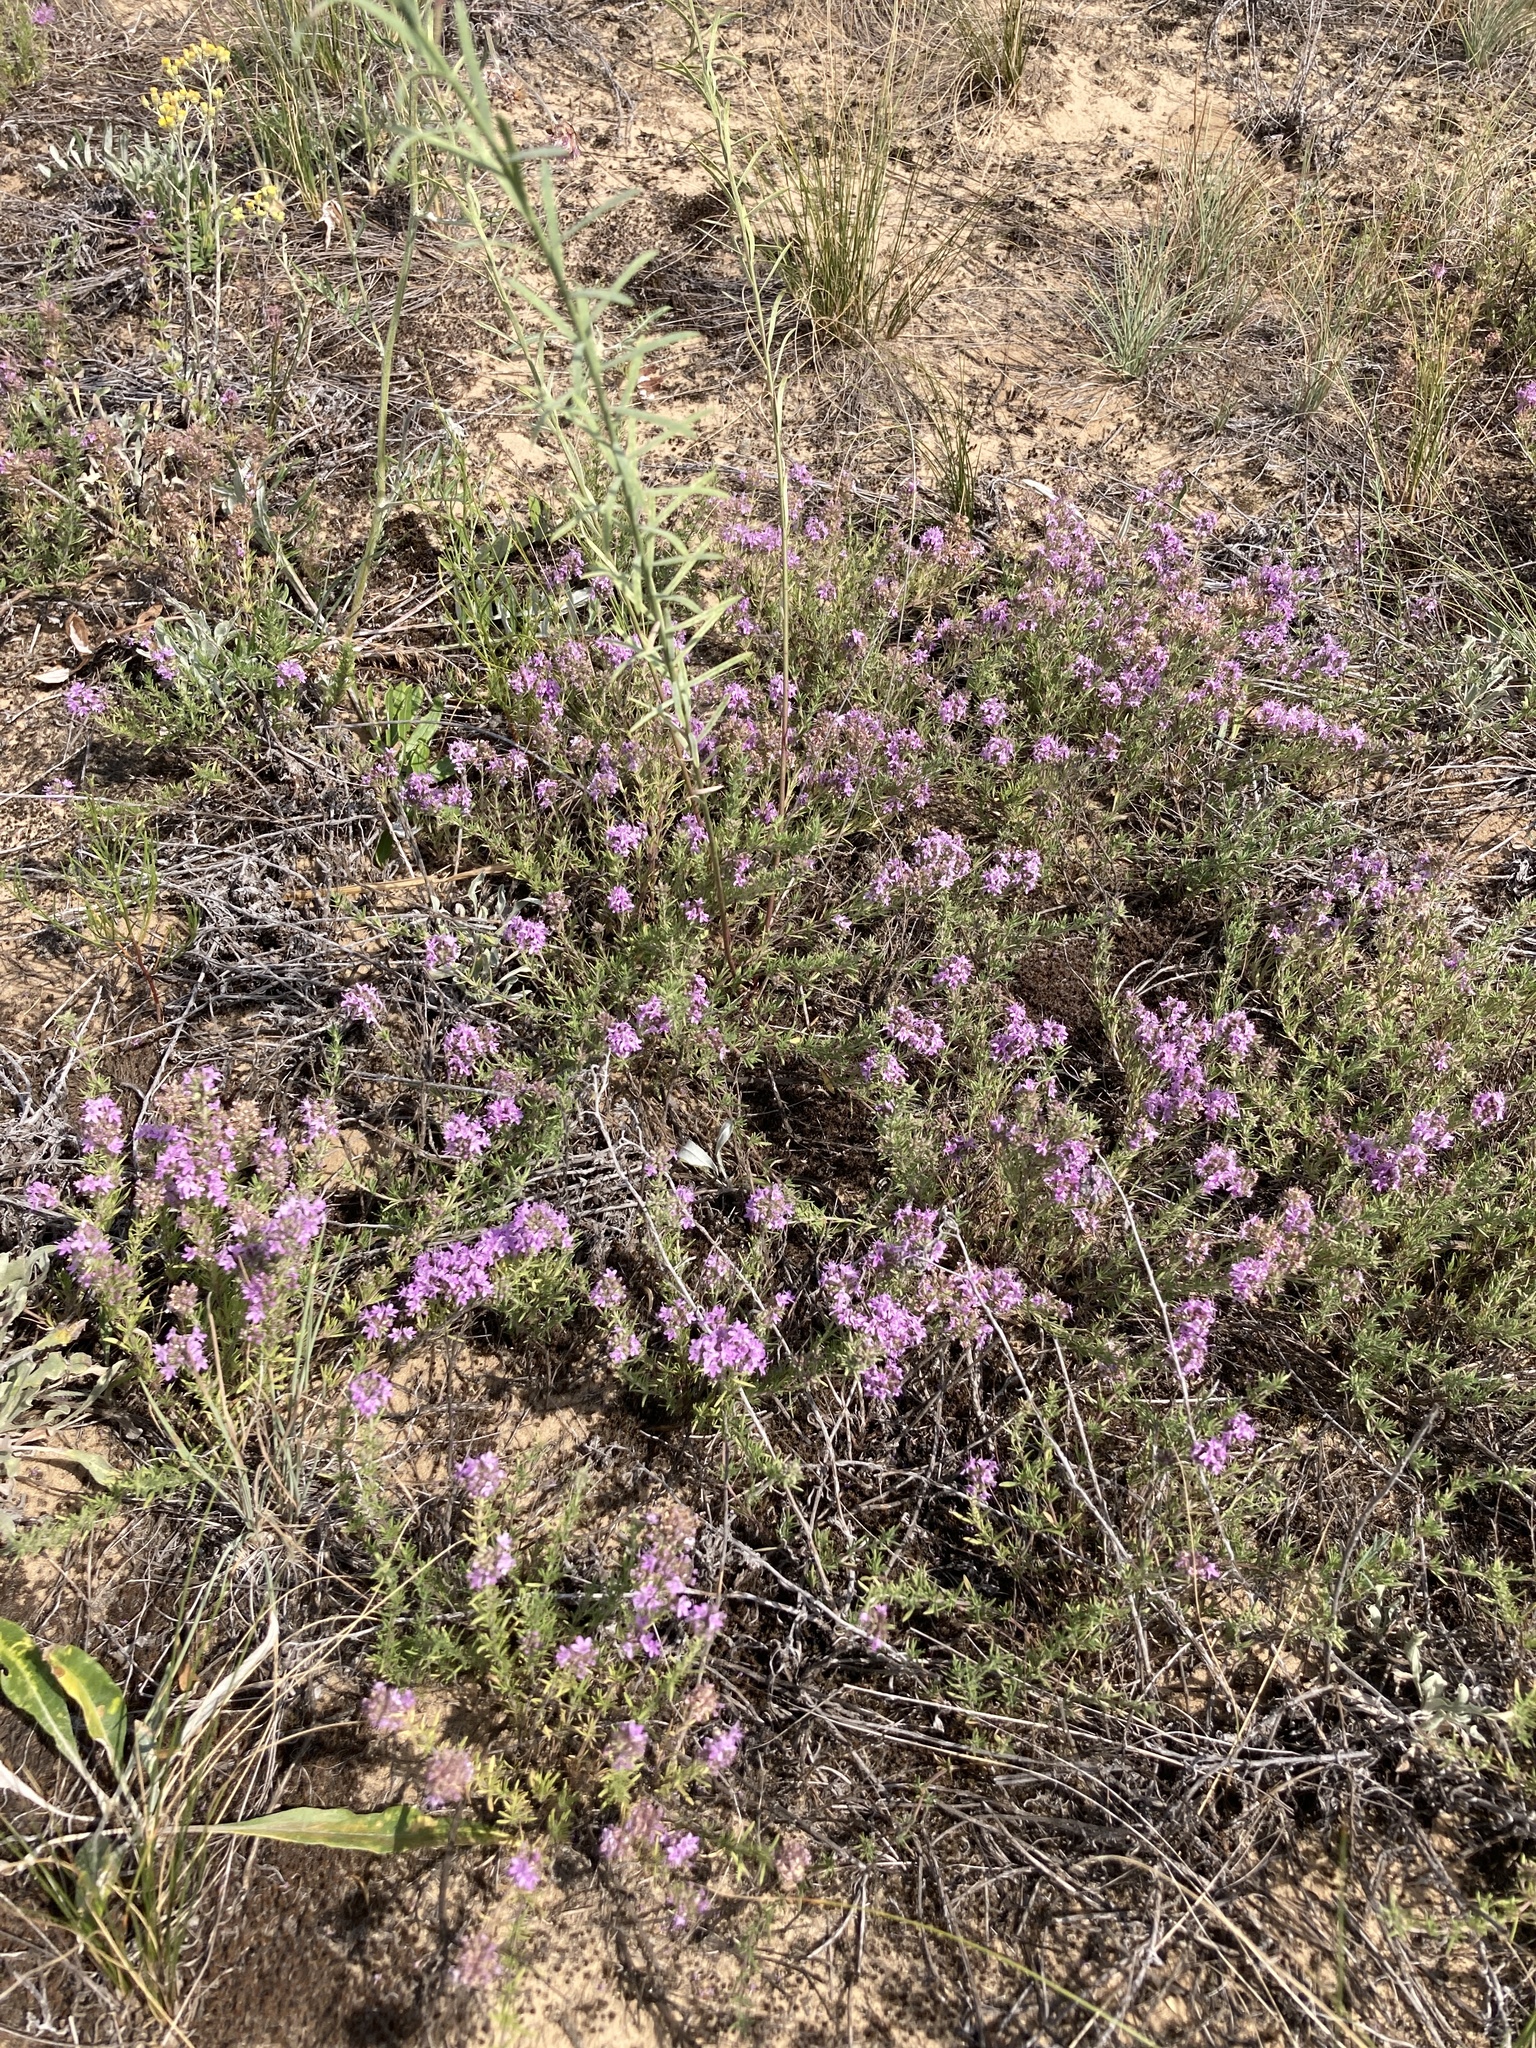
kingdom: Plantae
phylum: Tracheophyta
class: Magnoliopsida
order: Lamiales
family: Lamiaceae
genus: Thymus
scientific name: Thymus pallasianus
